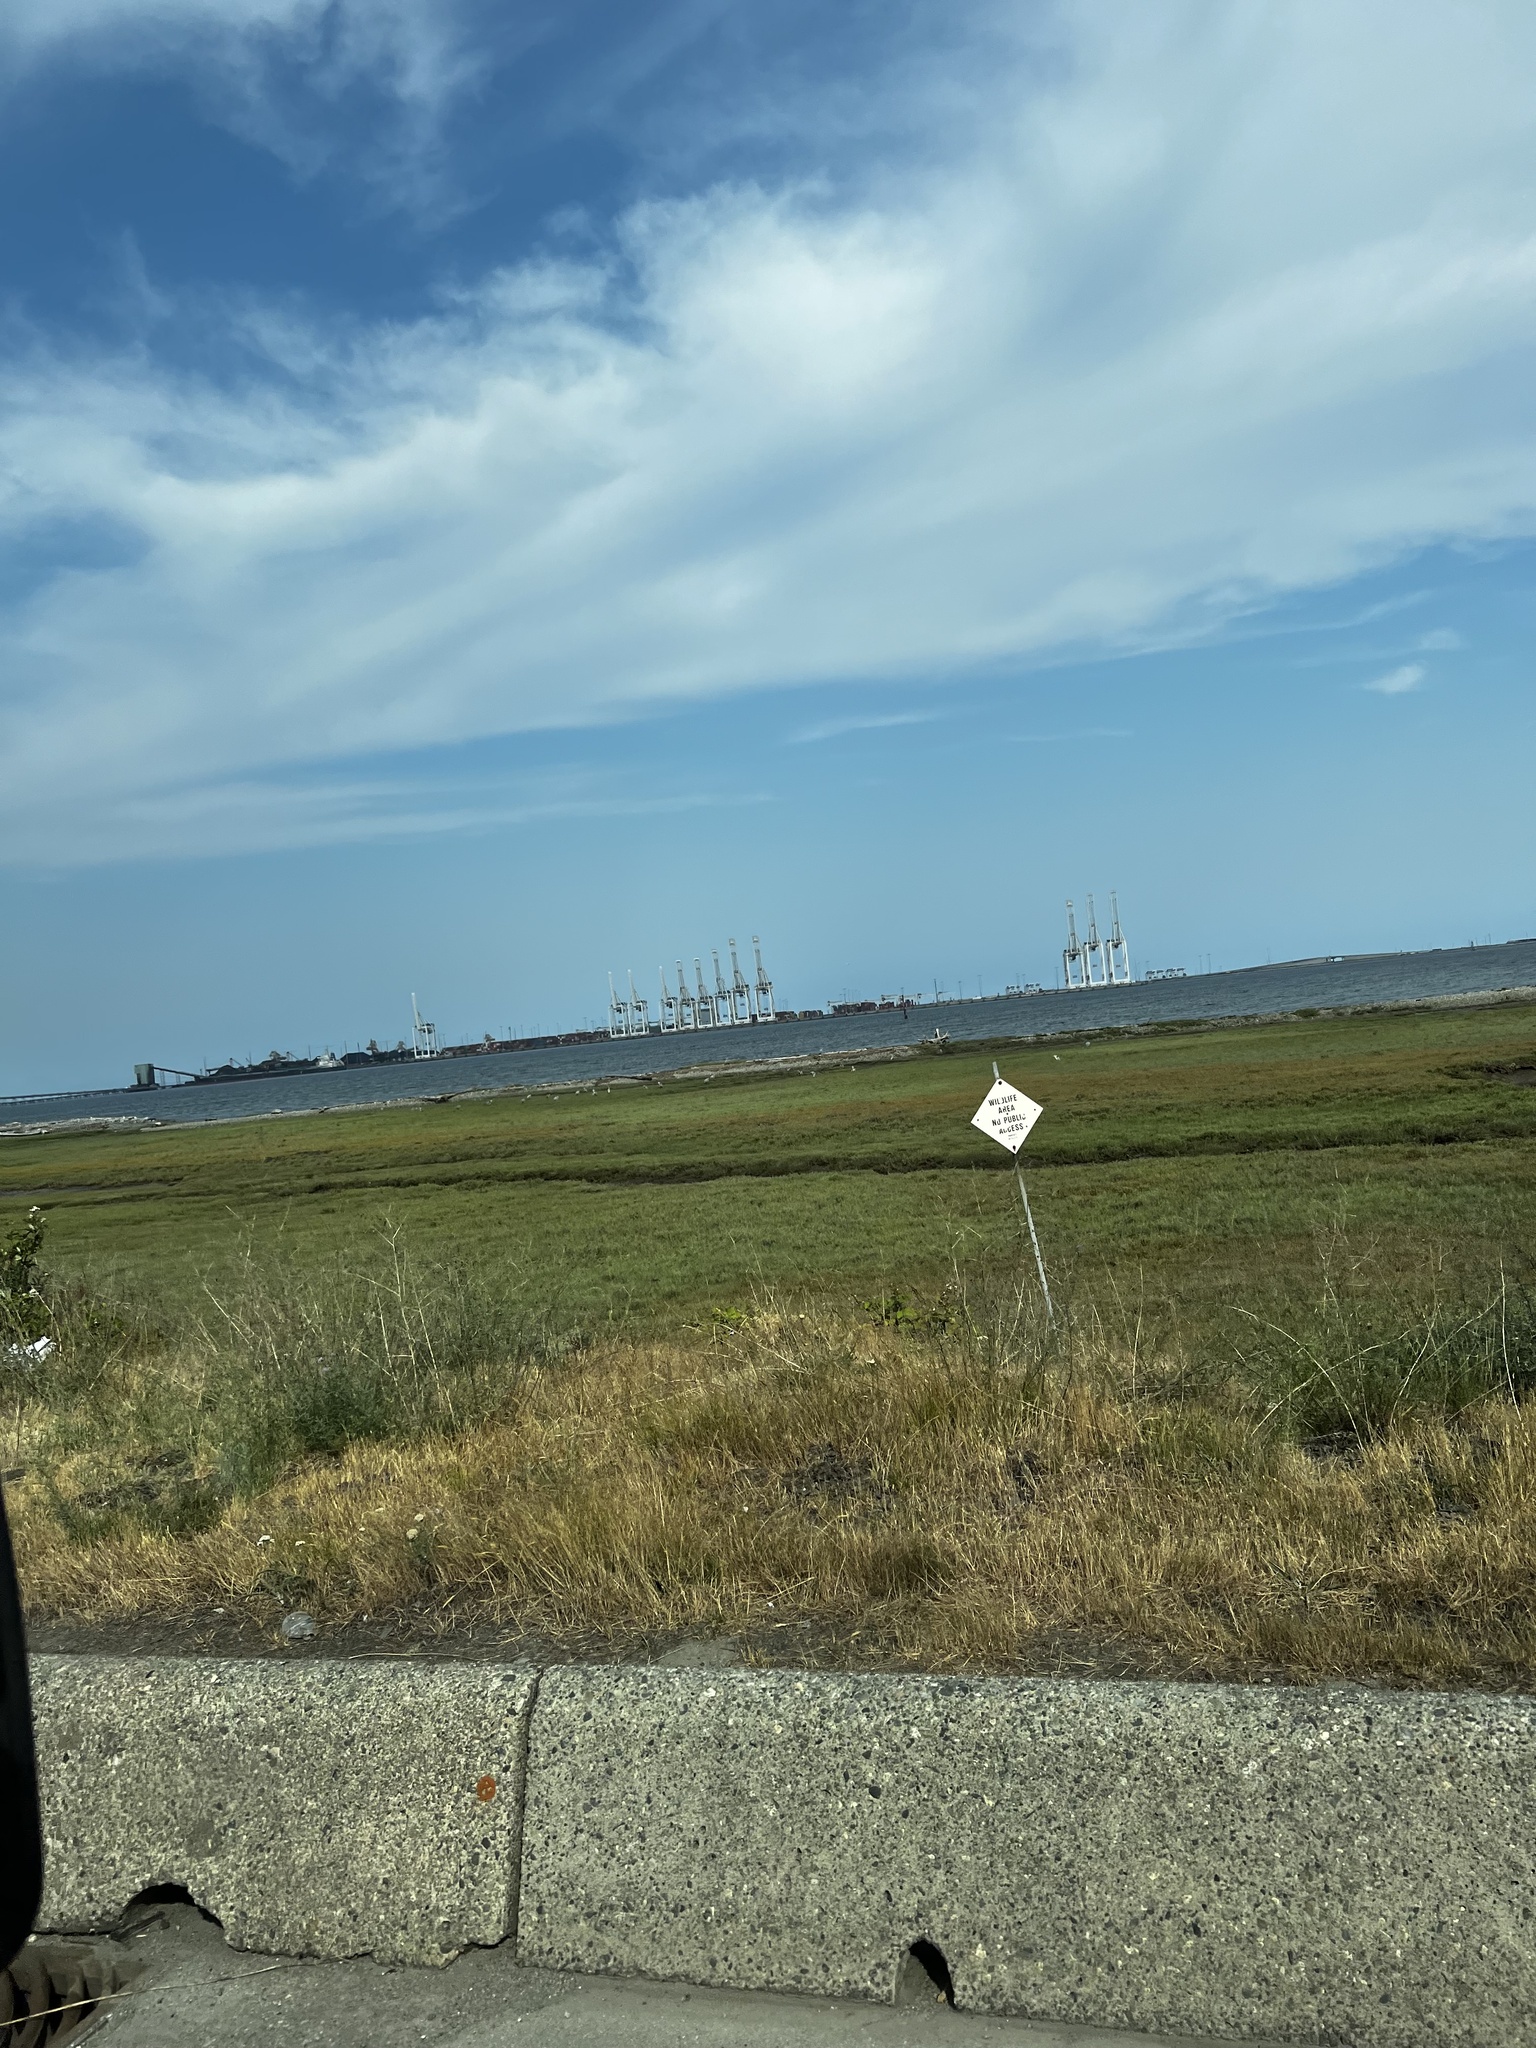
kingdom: Animalia
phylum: Chordata
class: Aves
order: Pelecaniformes
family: Ardeidae
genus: Ardea
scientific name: Ardea herodias
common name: Great blue heron
